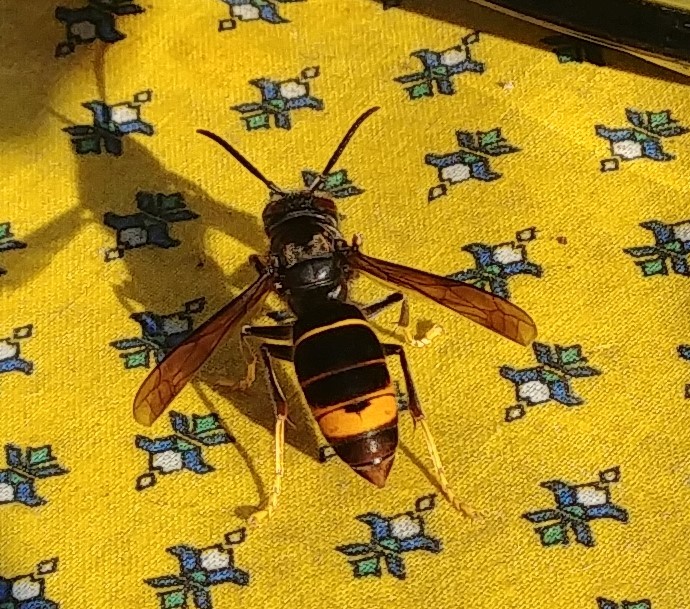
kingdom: Animalia
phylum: Arthropoda
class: Insecta
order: Hymenoptera
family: Vespidae
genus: Vespa
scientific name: Vespa velutina
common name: Asian hornet
